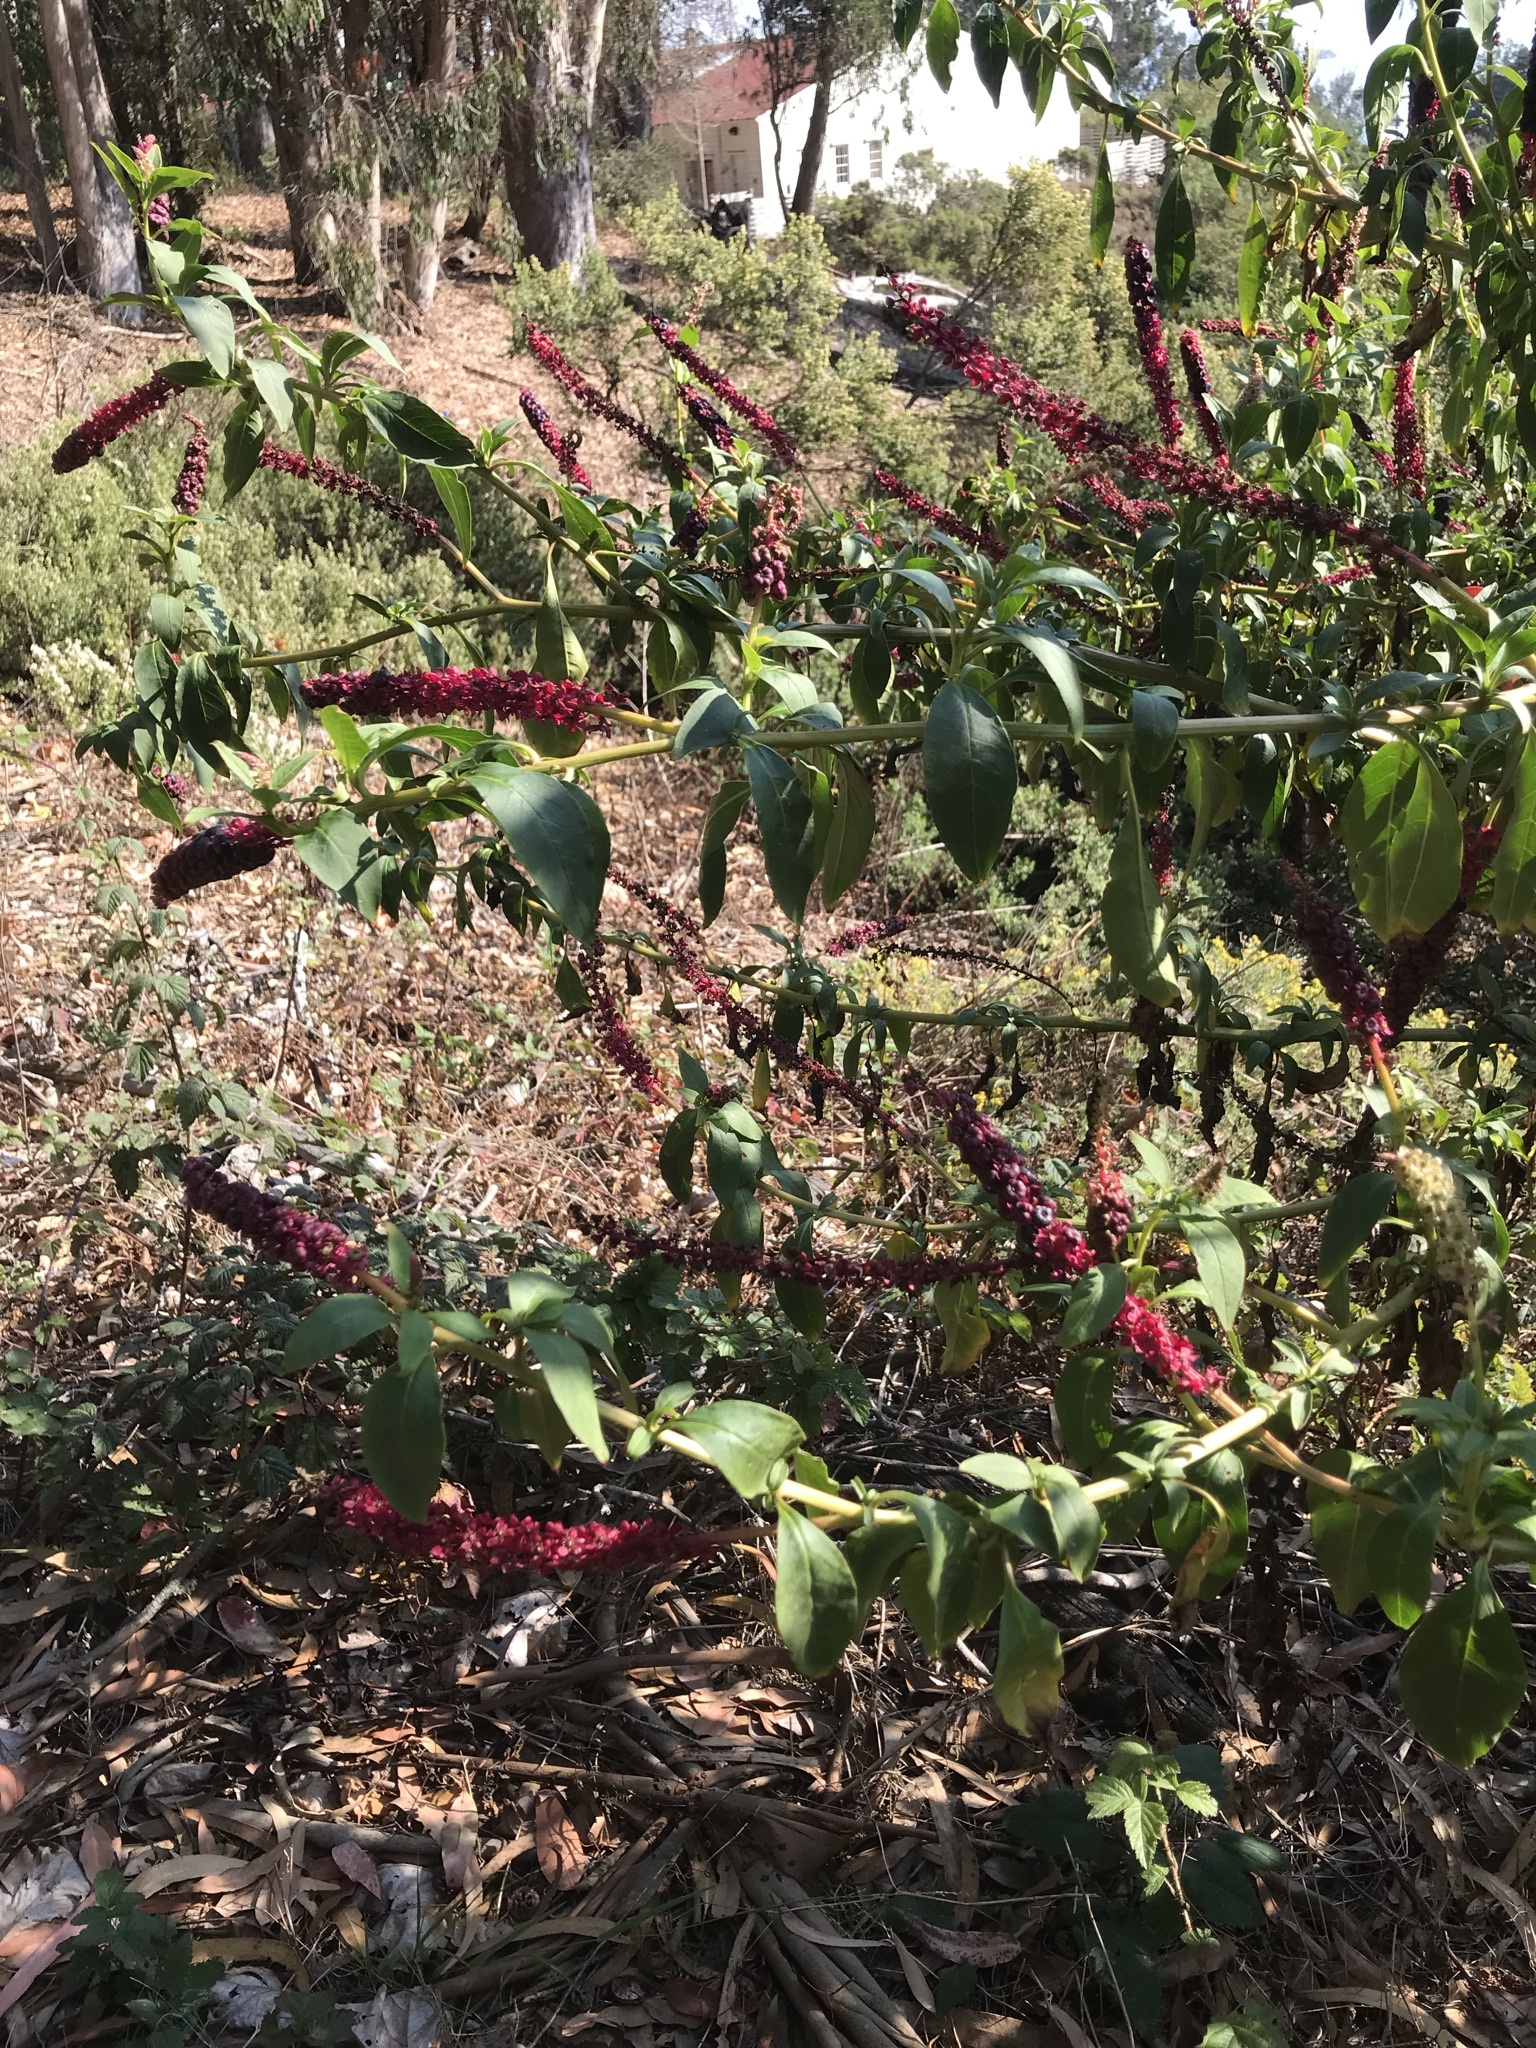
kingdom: Plantae
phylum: Tracheophyta
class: Magnoliopsida
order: Caryophyllales
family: Phytolaccaceae
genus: Phytolacca
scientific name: Phytolacca
